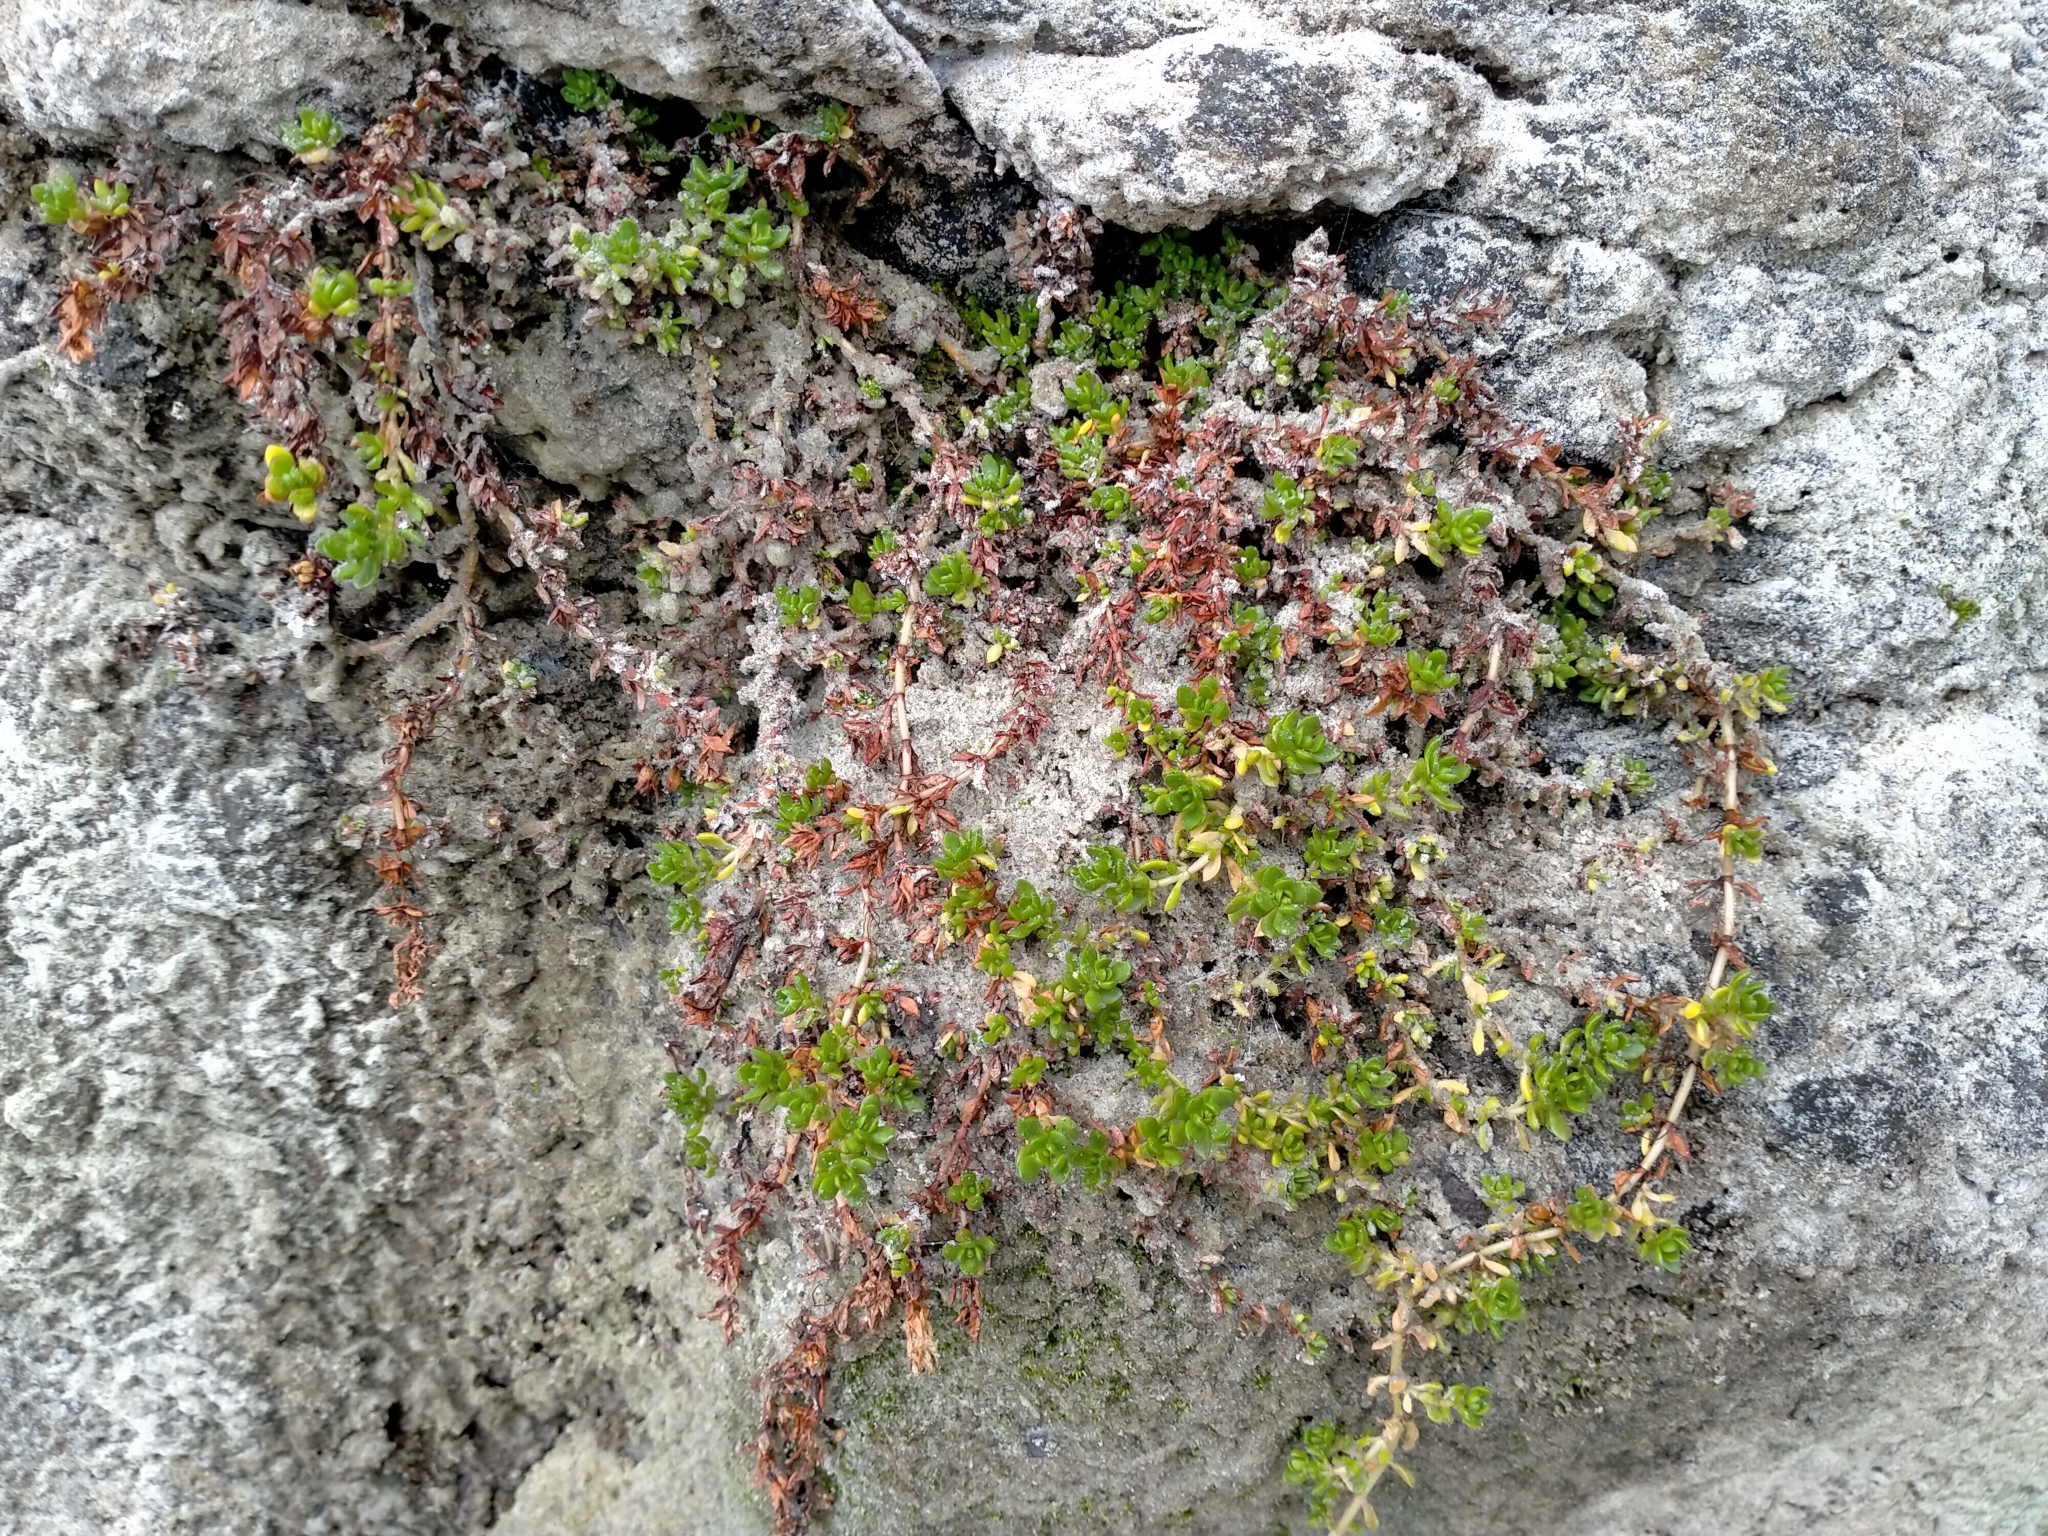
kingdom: Plantae
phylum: Tracheophyta
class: Magnoliopsida
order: Saxifragales
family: Crassulaceae
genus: Crassula
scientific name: Crassula moschata
